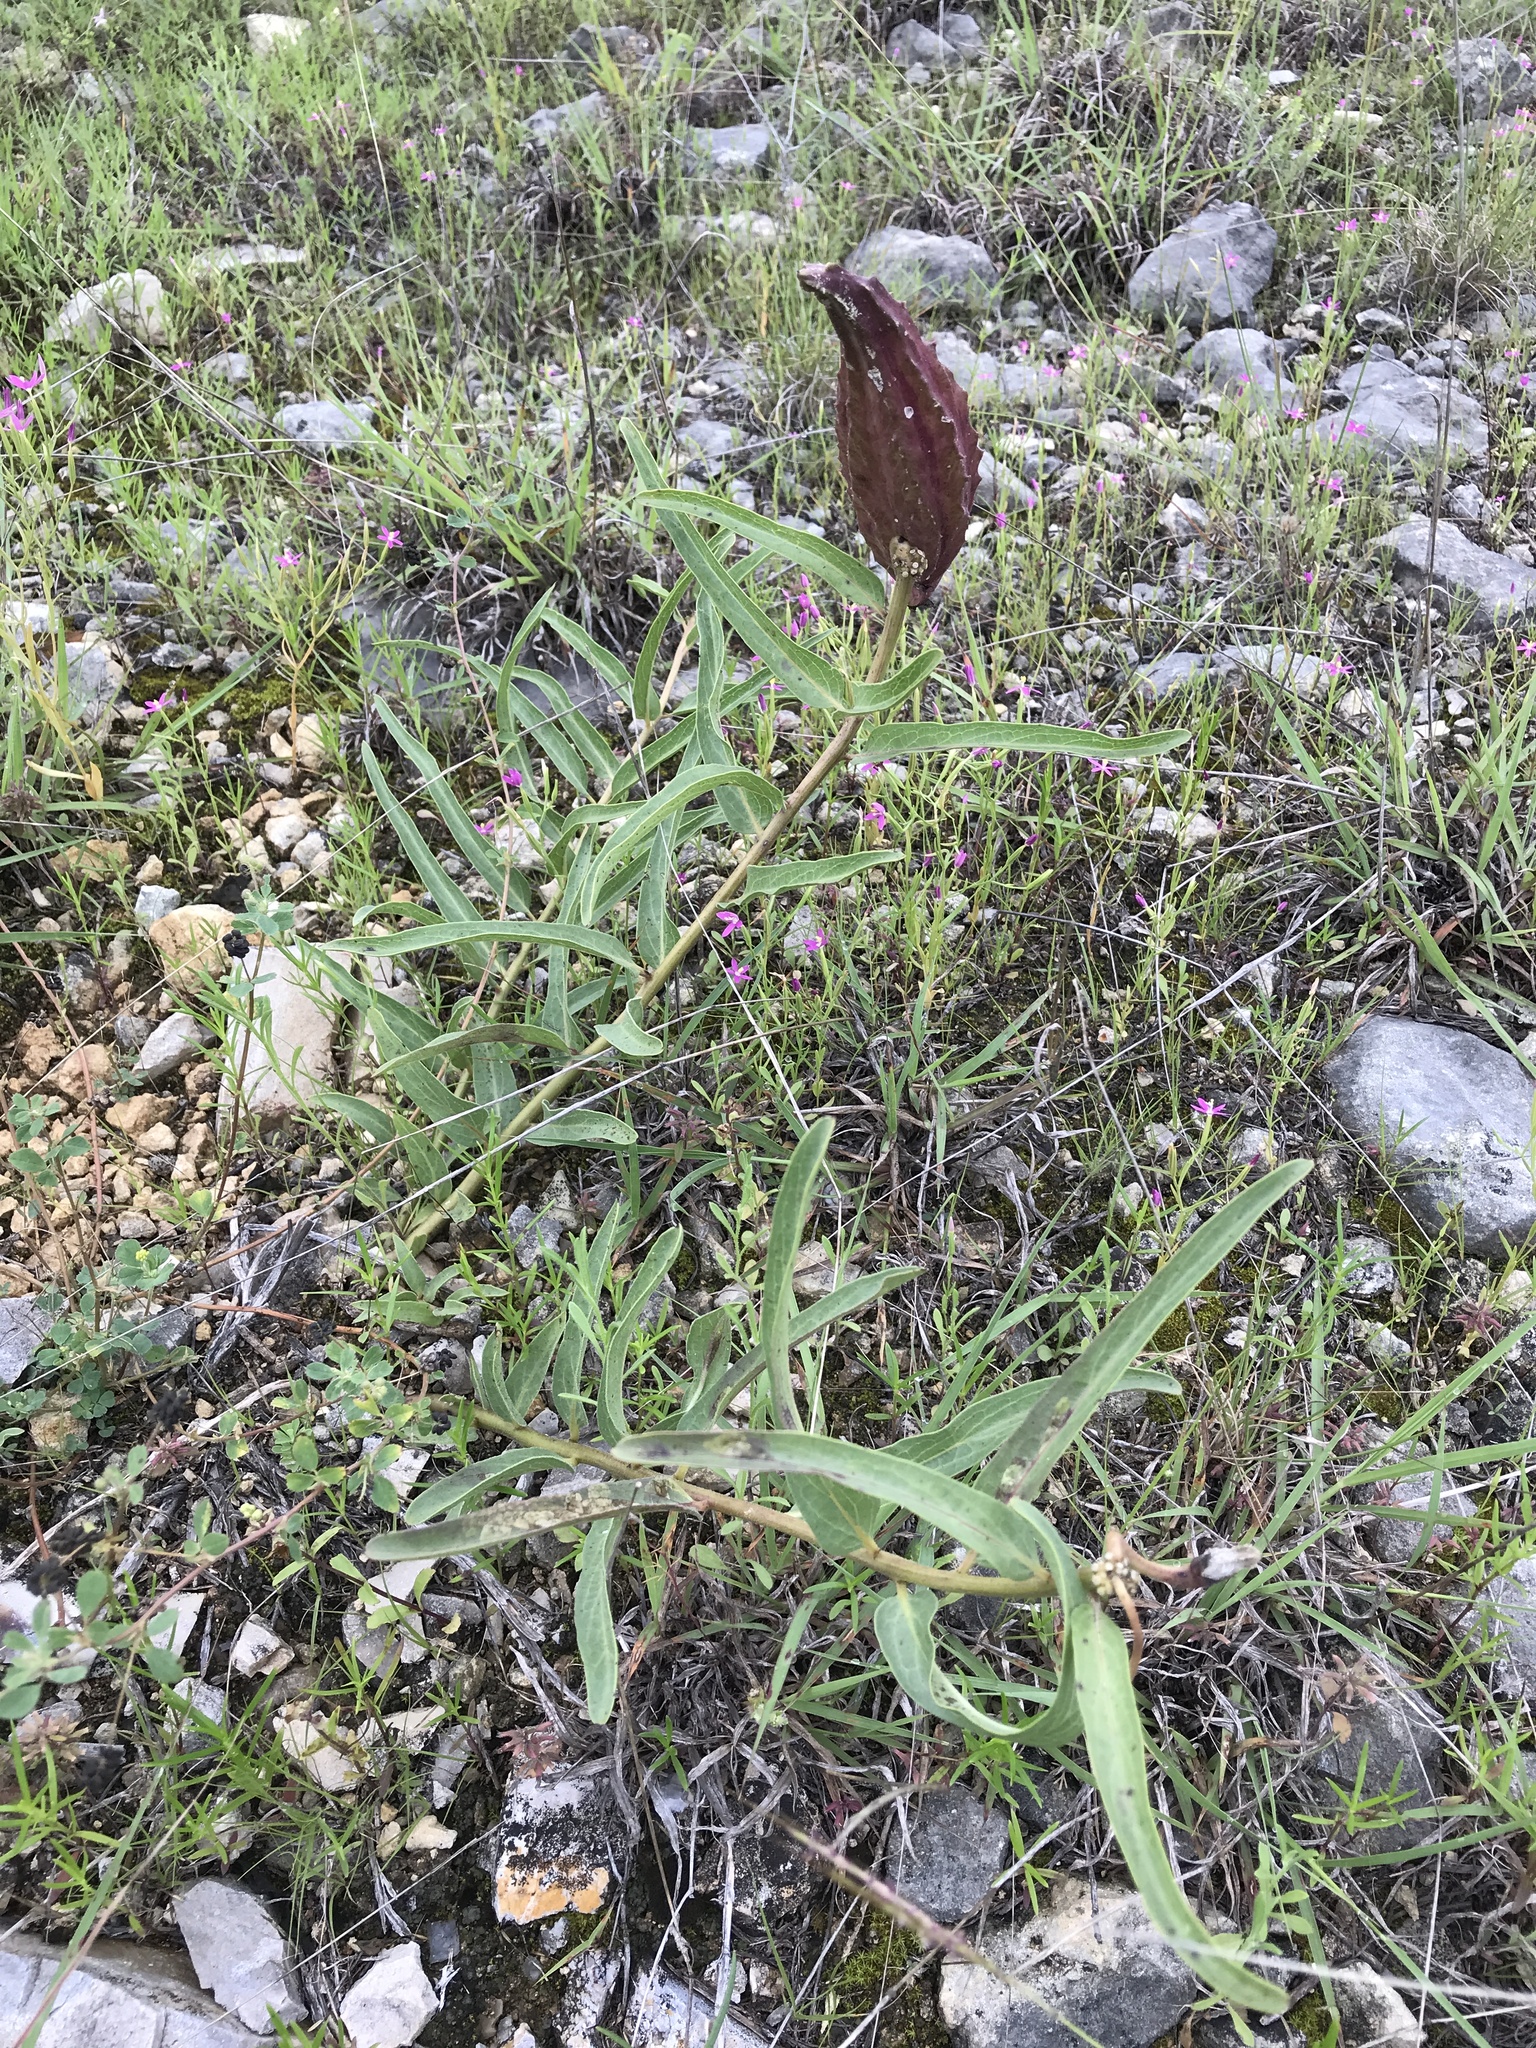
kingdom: Plantae
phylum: Tracheophyta
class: Magnoliopsida
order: Gentianales
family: Apocynaceae
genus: Asclepias
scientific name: Asclepias asperula
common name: Antelope horns
